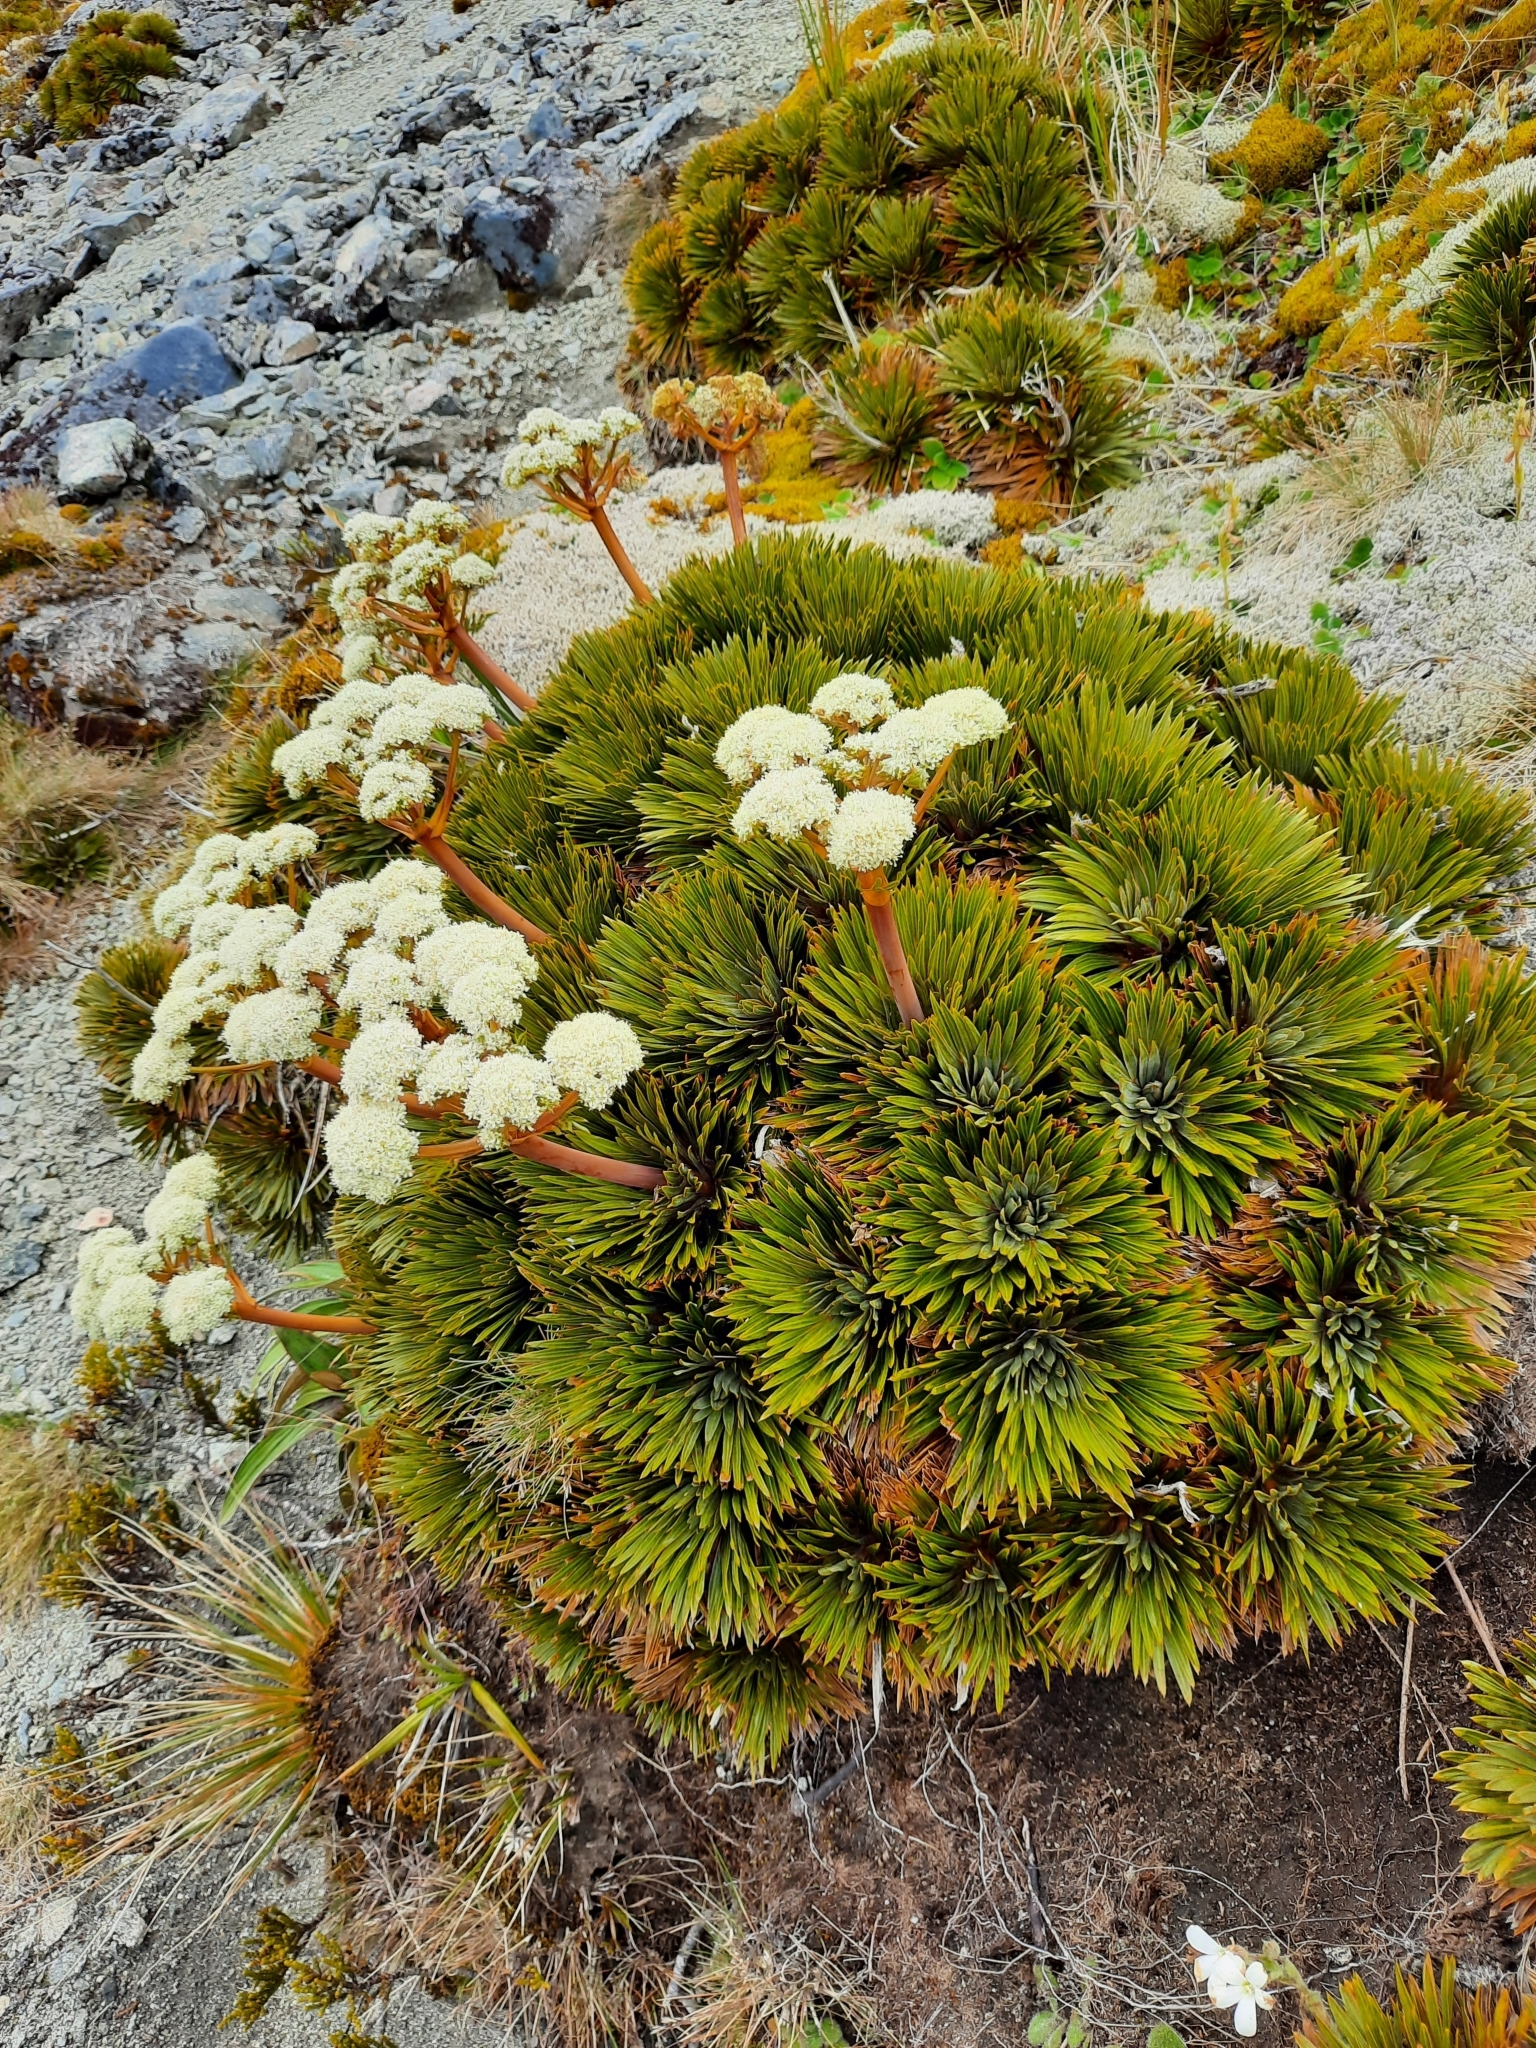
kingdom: Plantae
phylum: Tracheophyta
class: Magnoliopsida
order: Apiales
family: Apiaceae
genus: Aciphylla
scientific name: Aciphylla crosby-smithii
